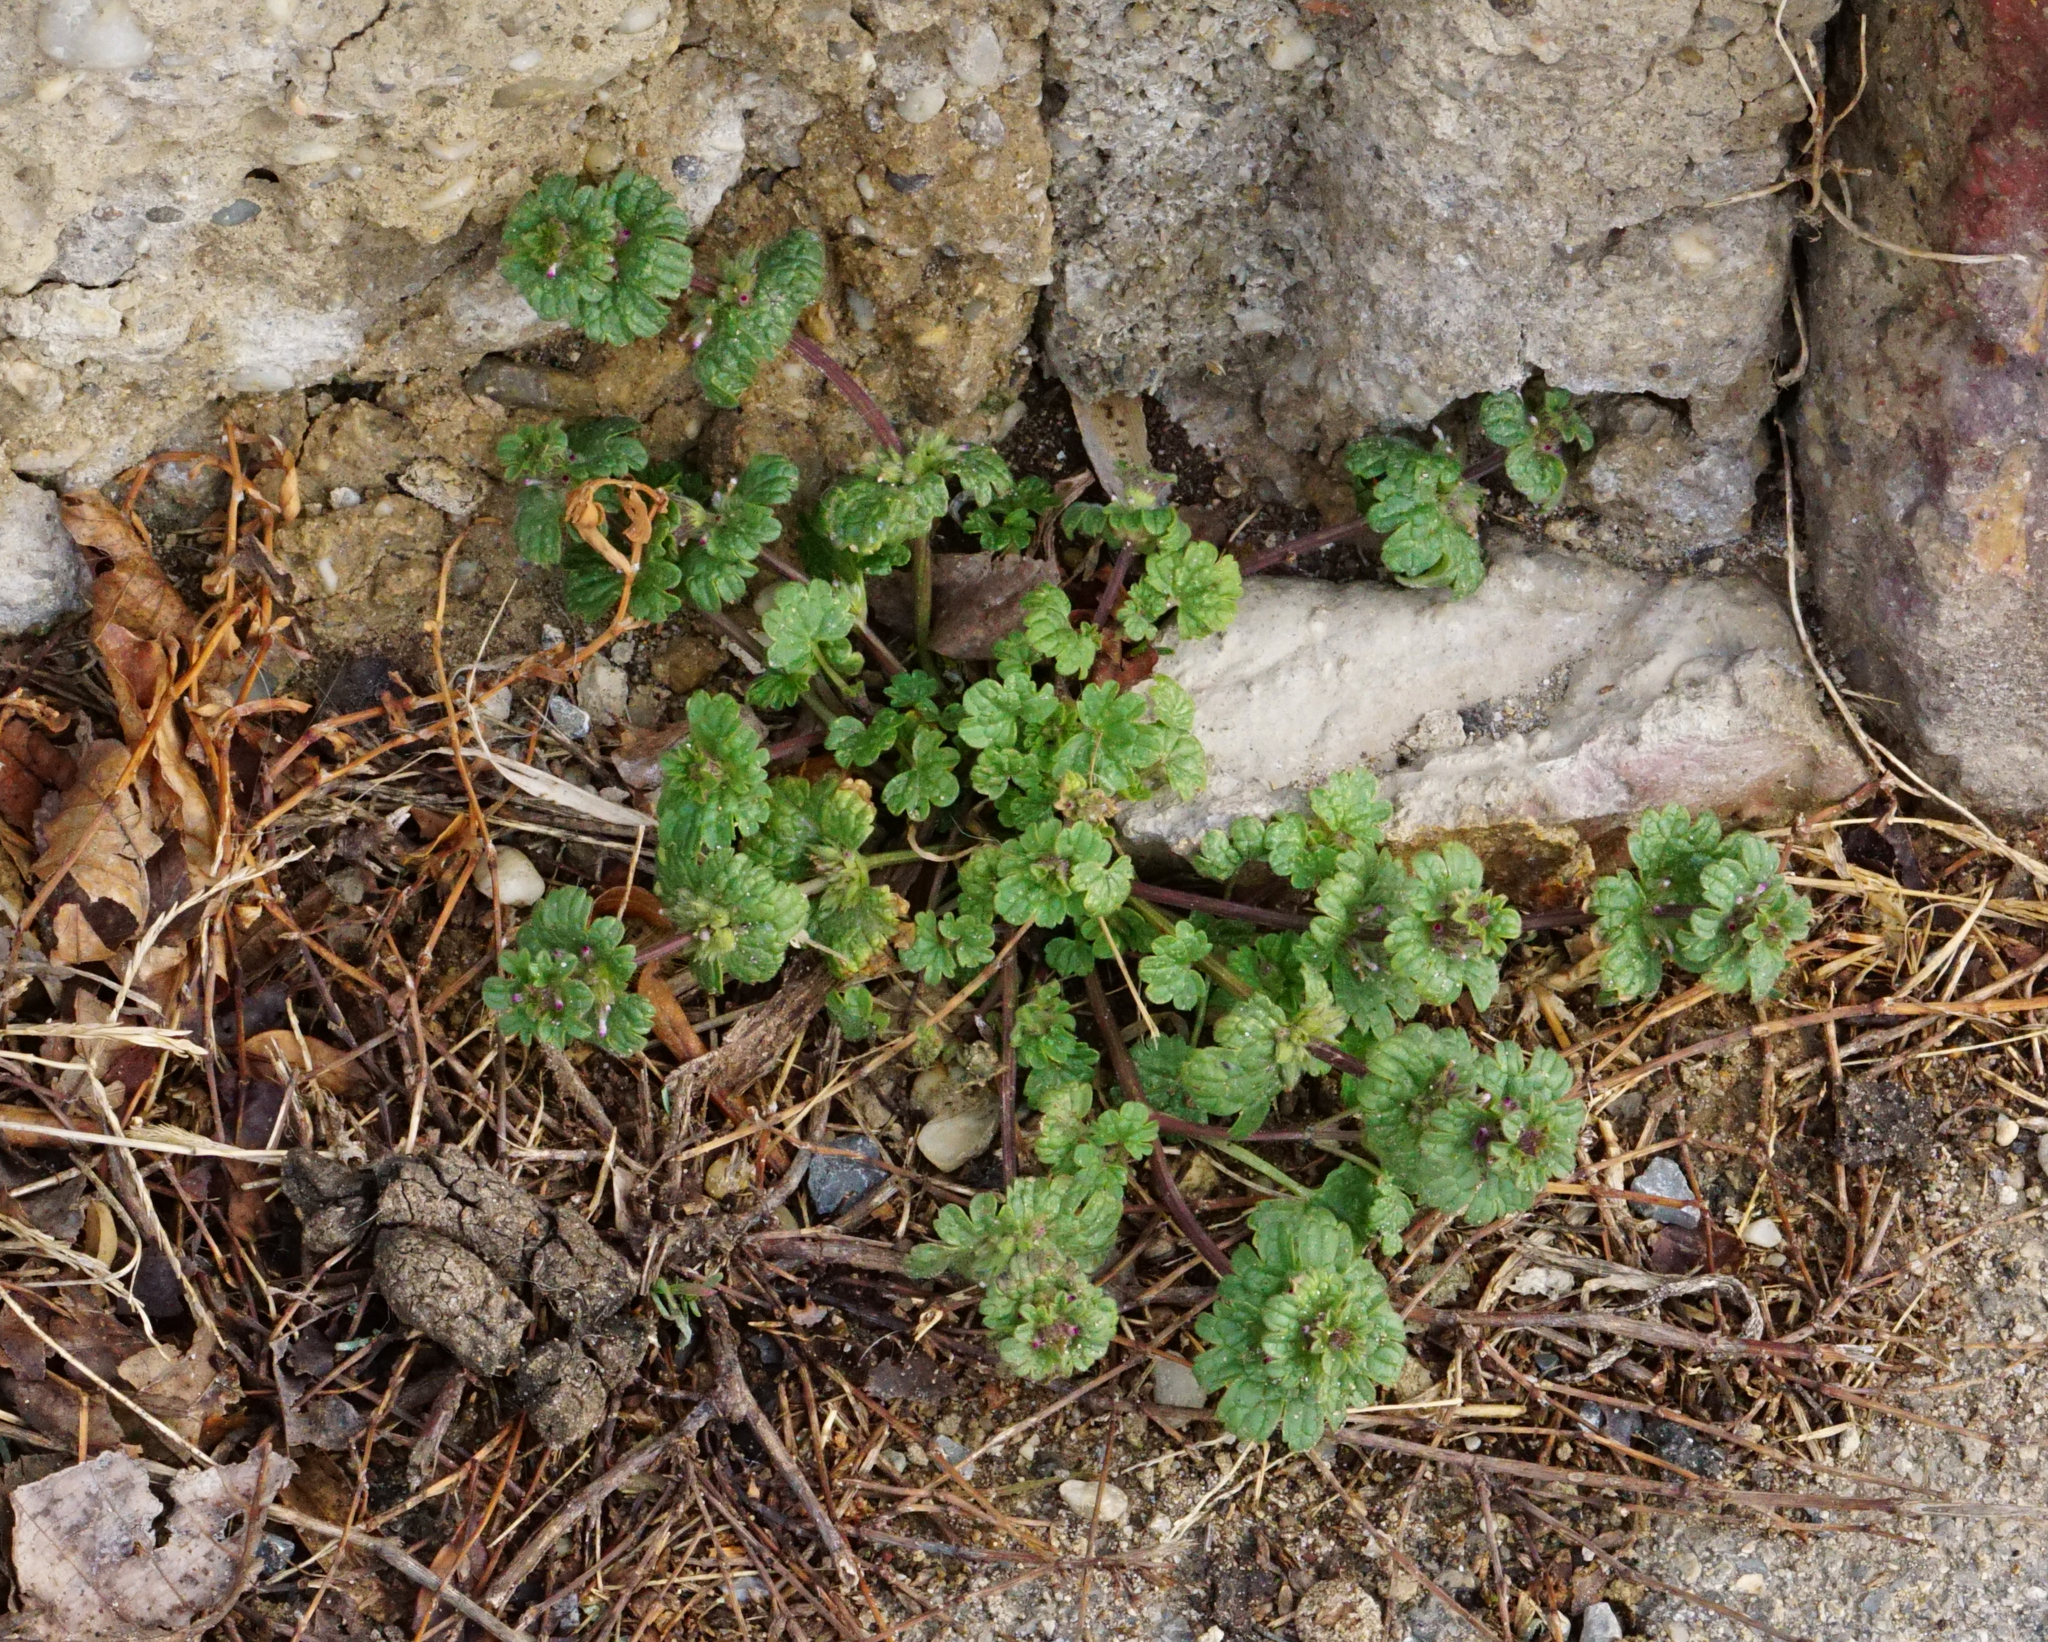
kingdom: Plantae
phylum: Tracheophyta
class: Magnoliopsida
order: Lamiales
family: Lamiaceae
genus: Lamium
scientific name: Lamium amplexicaule
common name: Henbit dead-nettle
